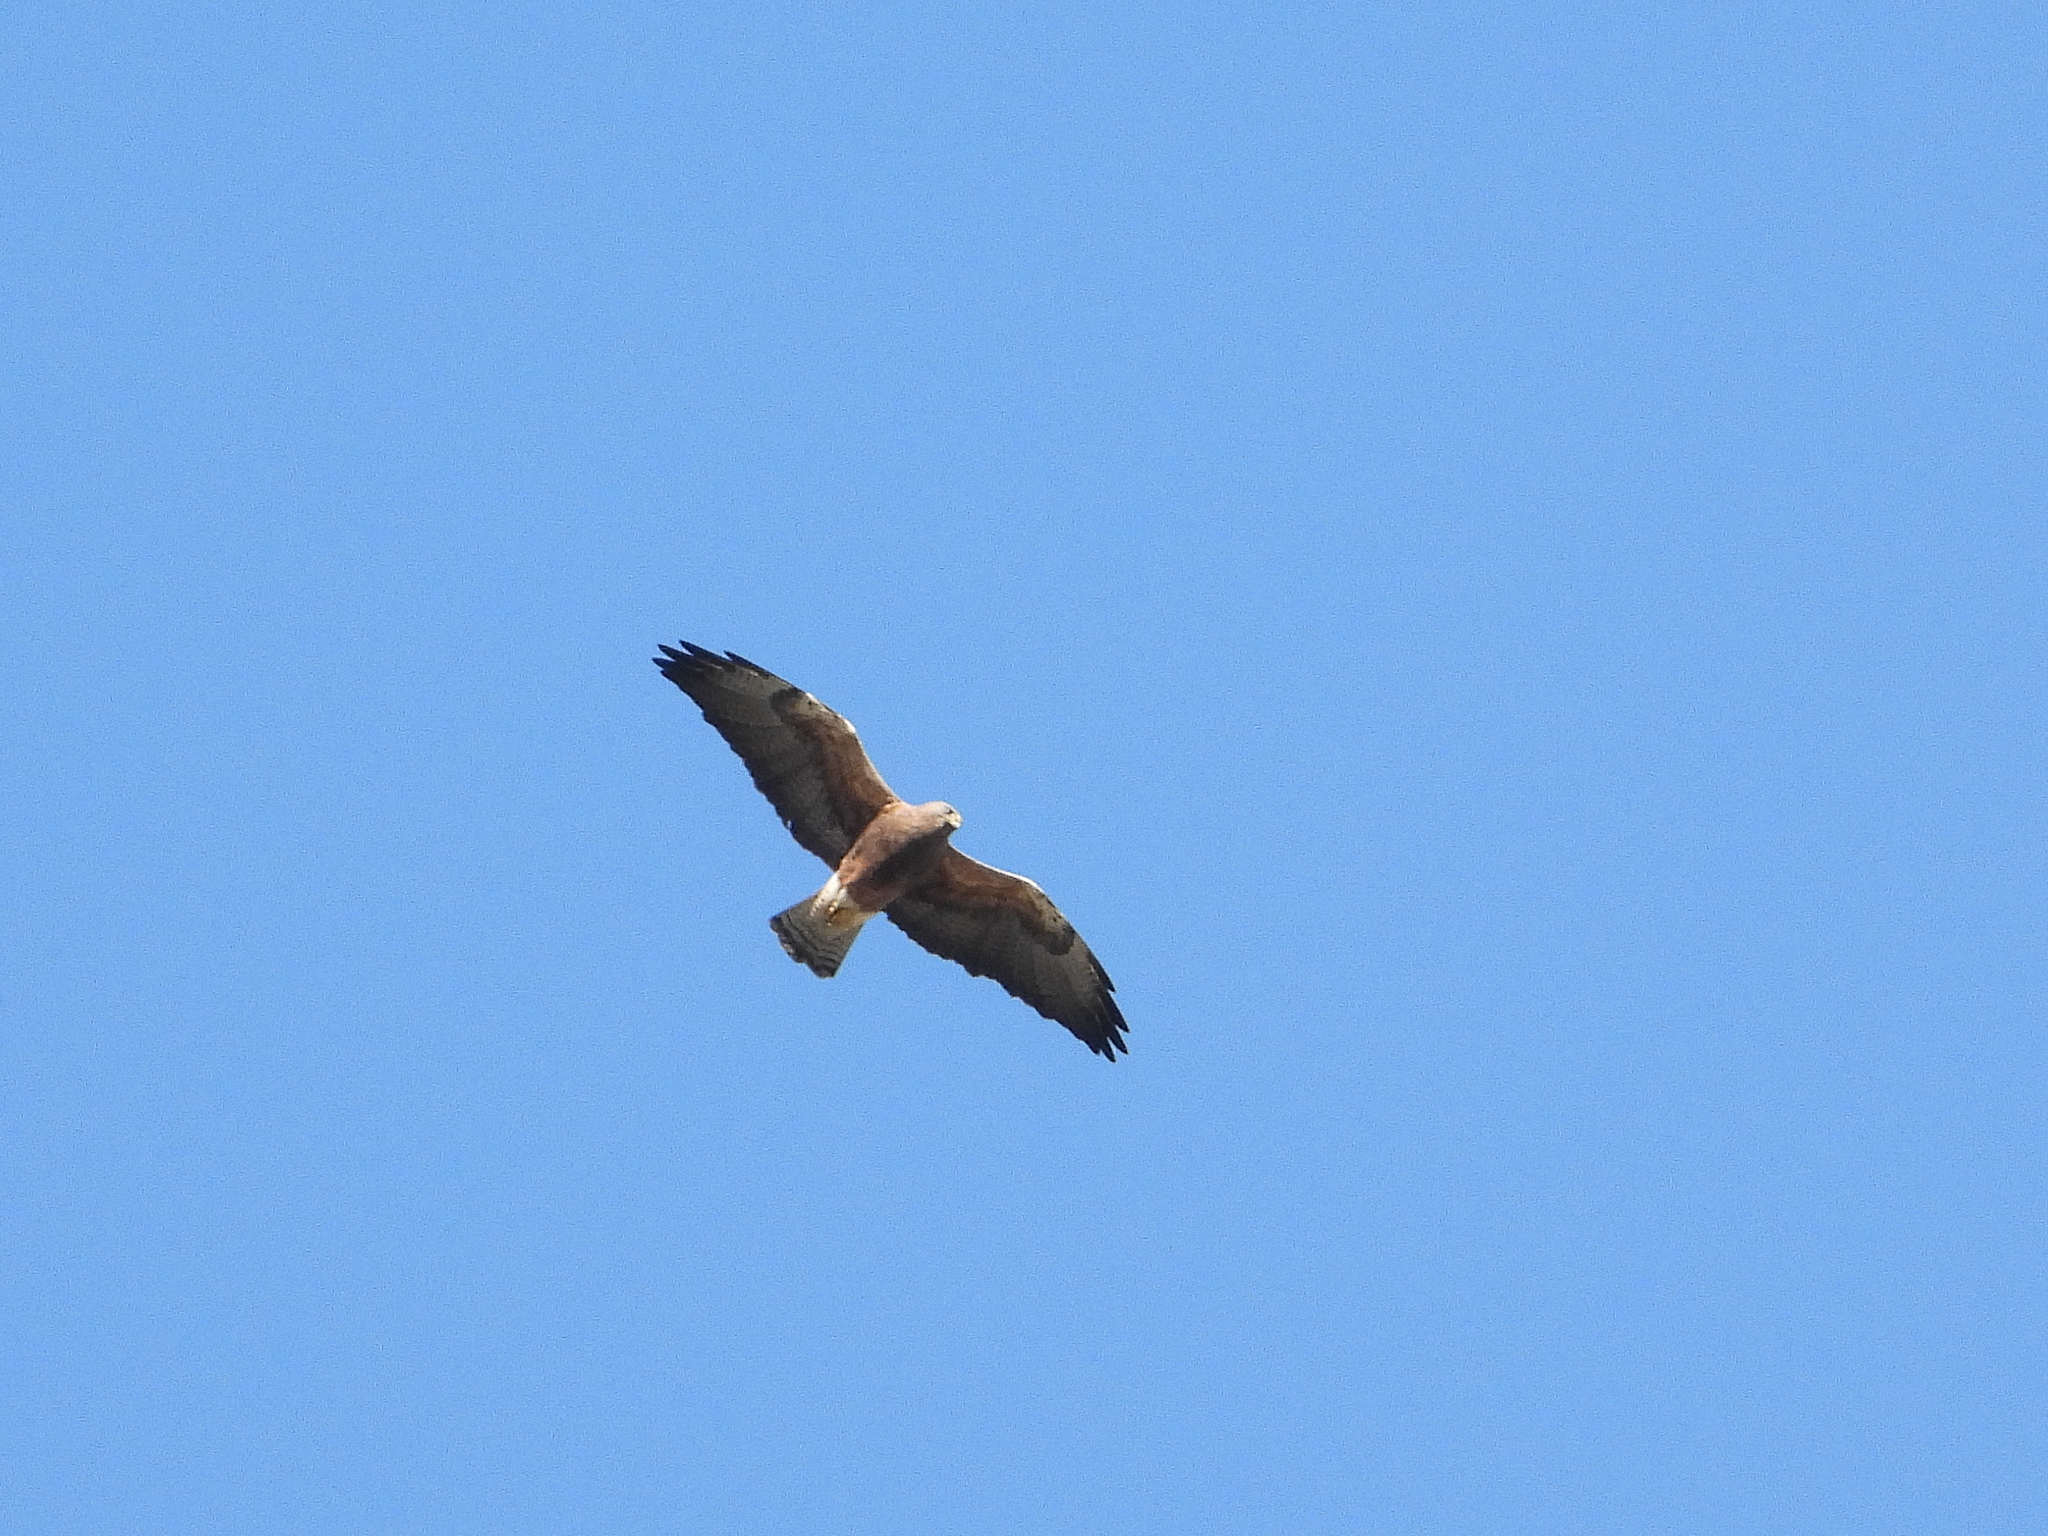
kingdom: Animalia
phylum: Chordata
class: Aves
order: Accipitriformes
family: Accipitridae
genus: Buteo
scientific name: Buteo swainsoni
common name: Swainson's hawk
